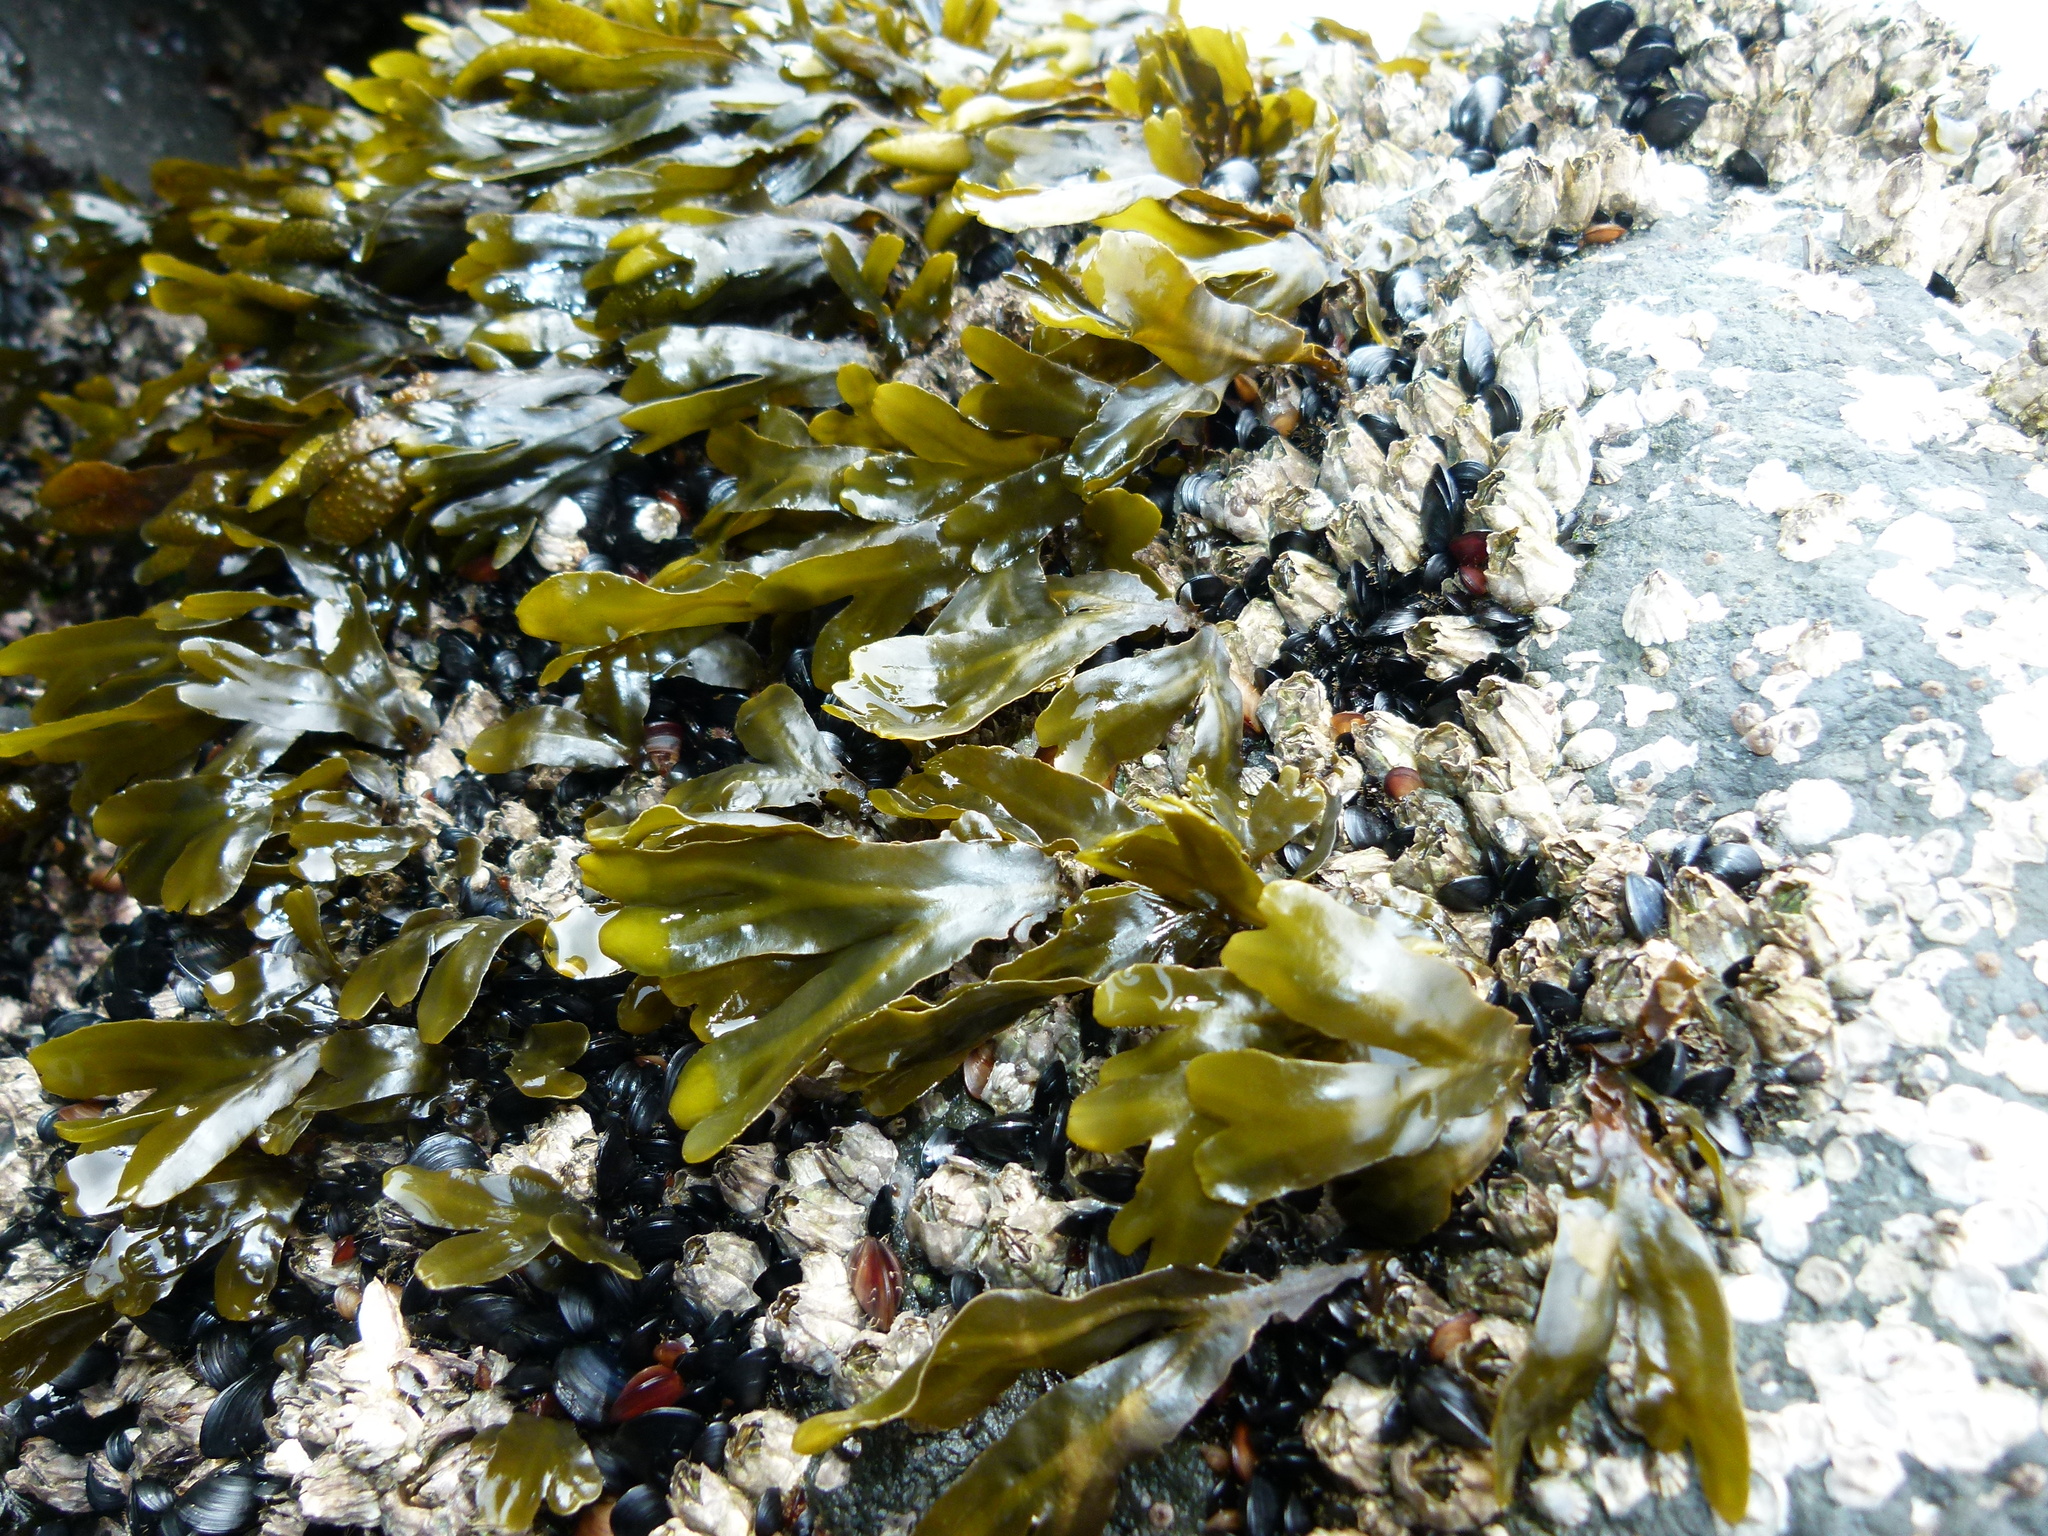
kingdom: Chromista
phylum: Ochrophyta
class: Phaeophyceae
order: Fucales
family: Fucaceae
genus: Fucus
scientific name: Fucus distichus
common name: Rockweed
